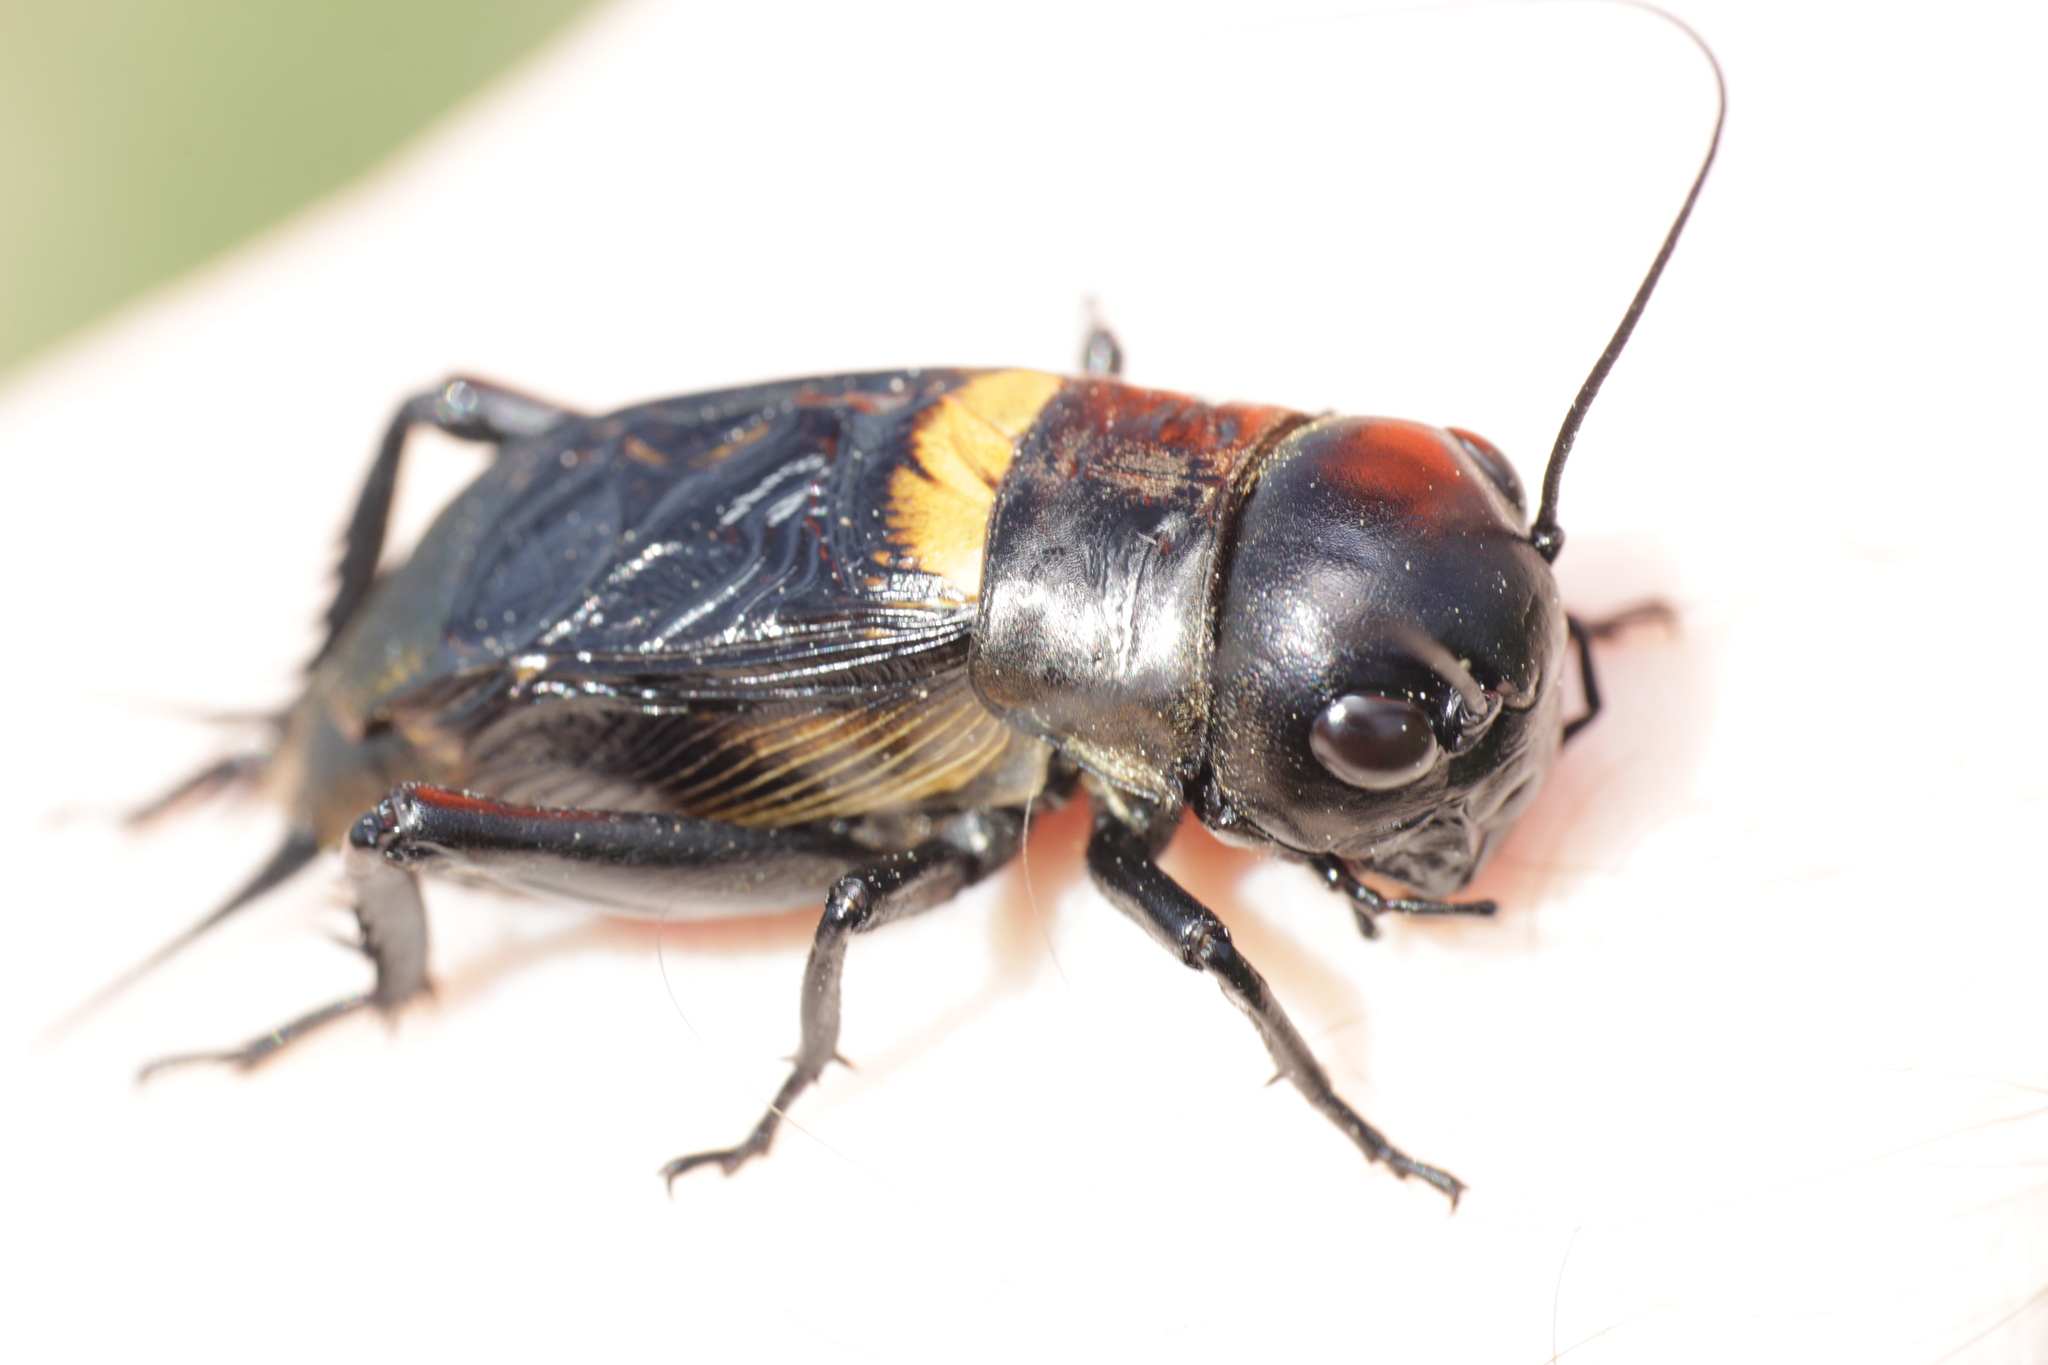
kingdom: Animalia
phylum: Arthropoda
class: Insecta
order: Orthoptera
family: Gryllidae
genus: Gryllus
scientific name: Gryllus campestris
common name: Field cricket
